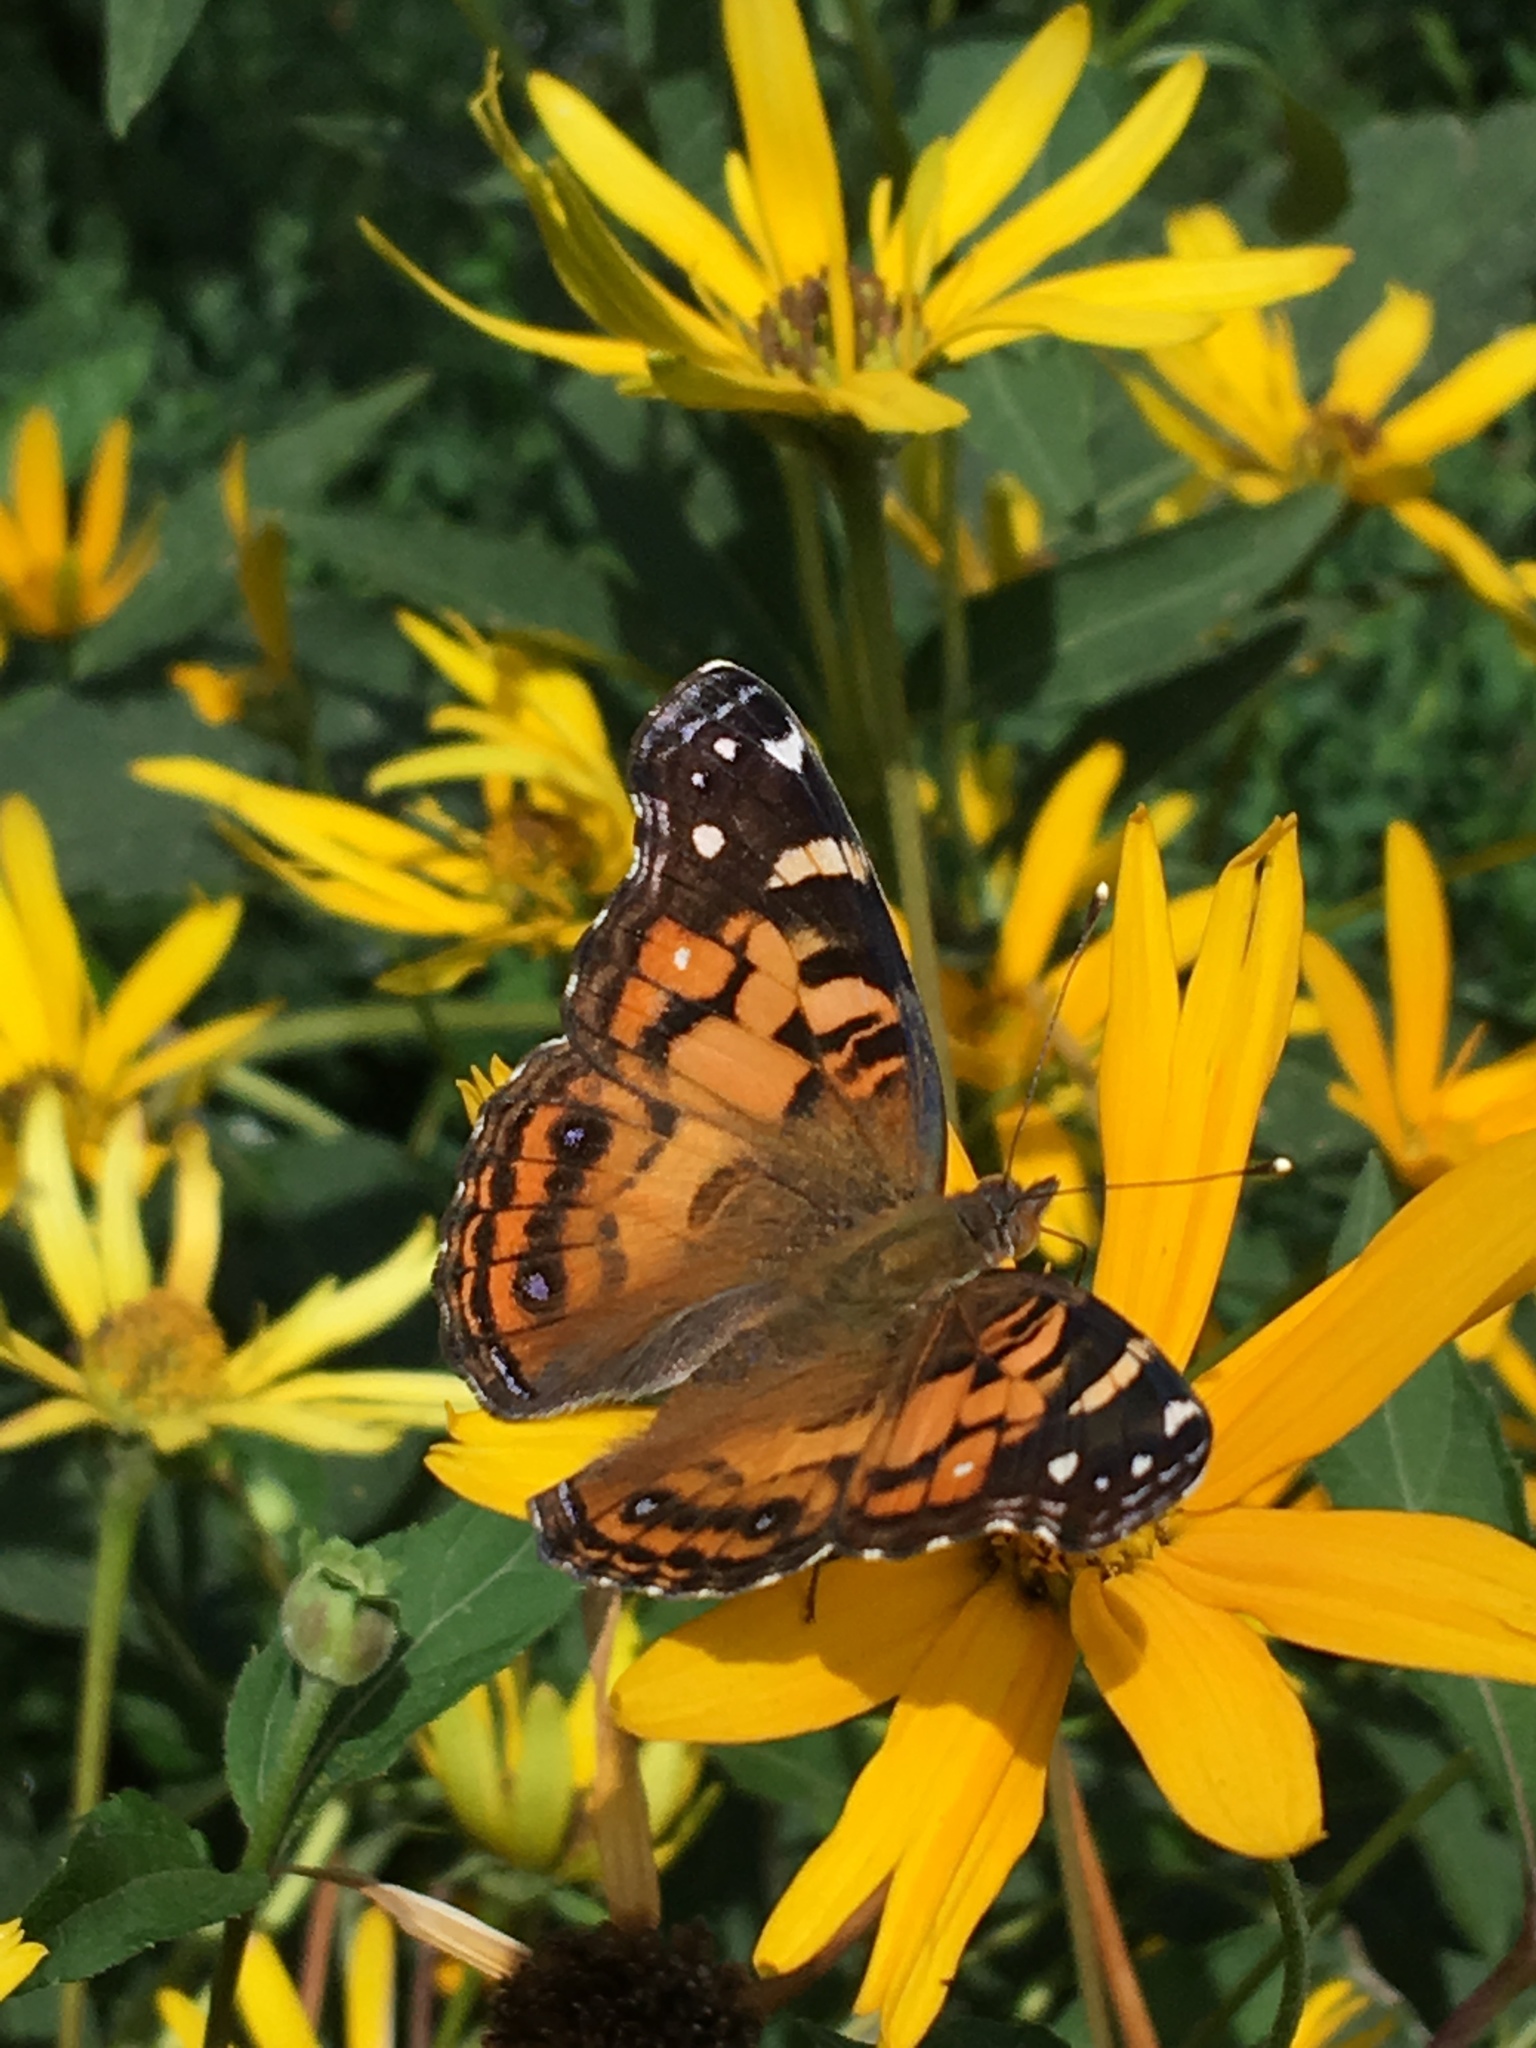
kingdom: Animalia
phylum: Arthropoda
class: Insecta
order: Lepidoptera
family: Nymphalidae
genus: Vanessa
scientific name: Vanessa virginiensis
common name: American lady
